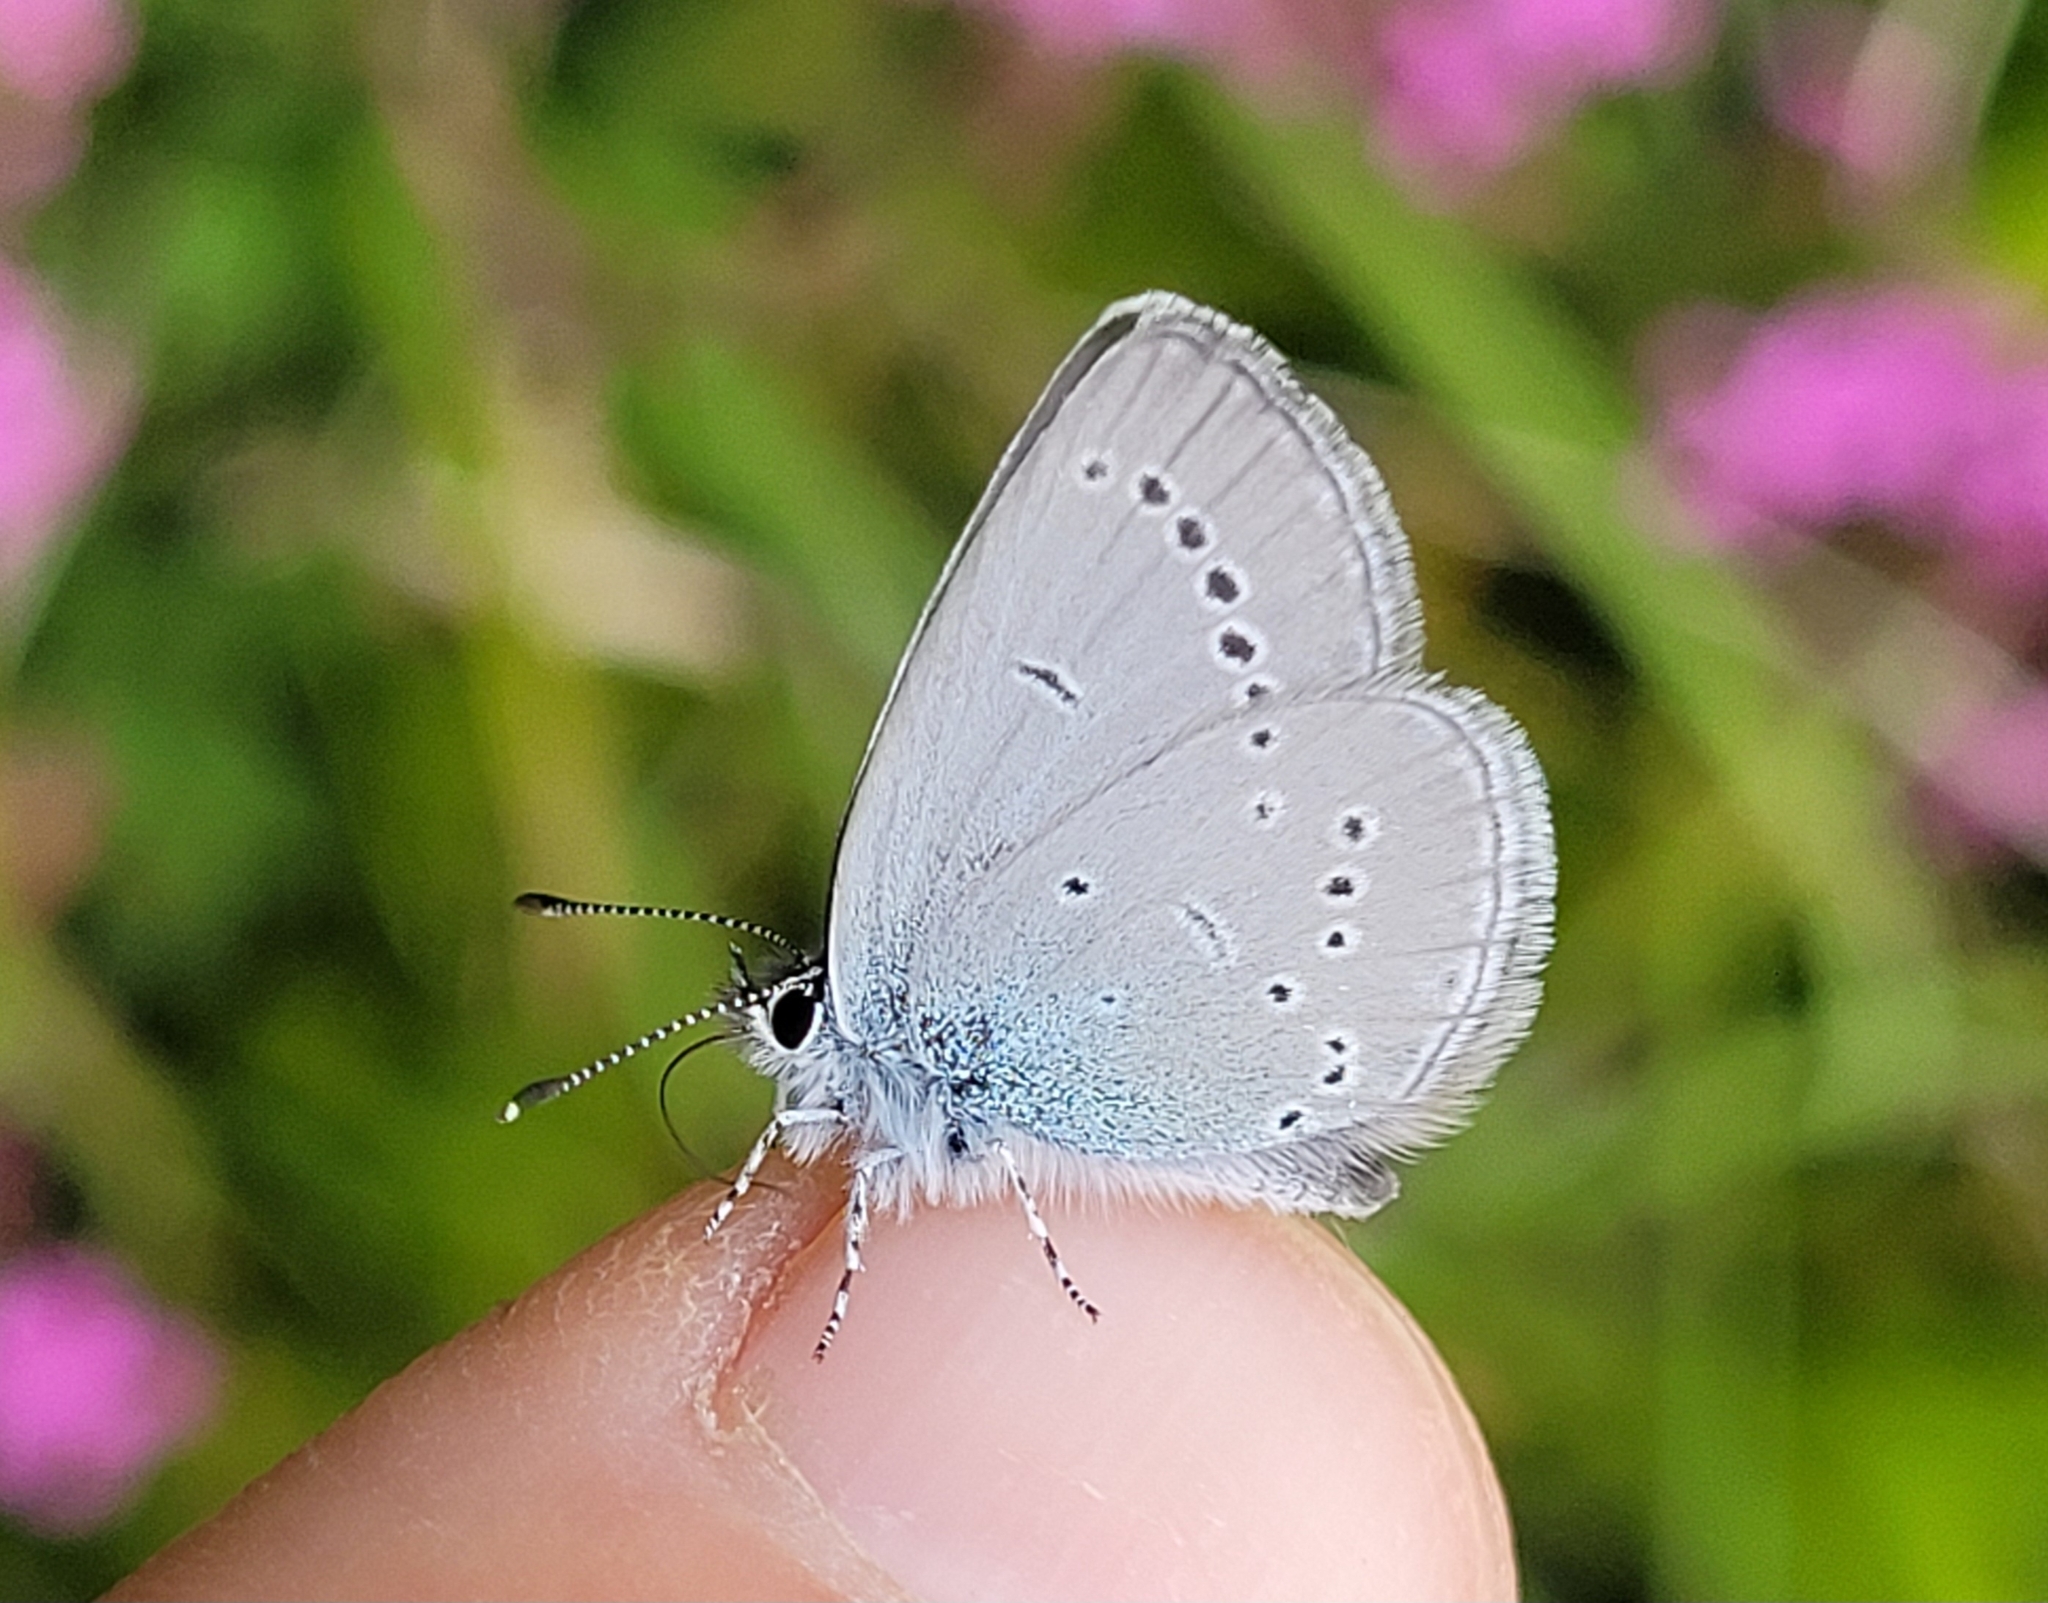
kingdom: Animalia
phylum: Arthropoda
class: Insecta
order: Lepidoptera
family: Lycaenidae
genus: Cupido
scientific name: Cupido minimus
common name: Small blue
